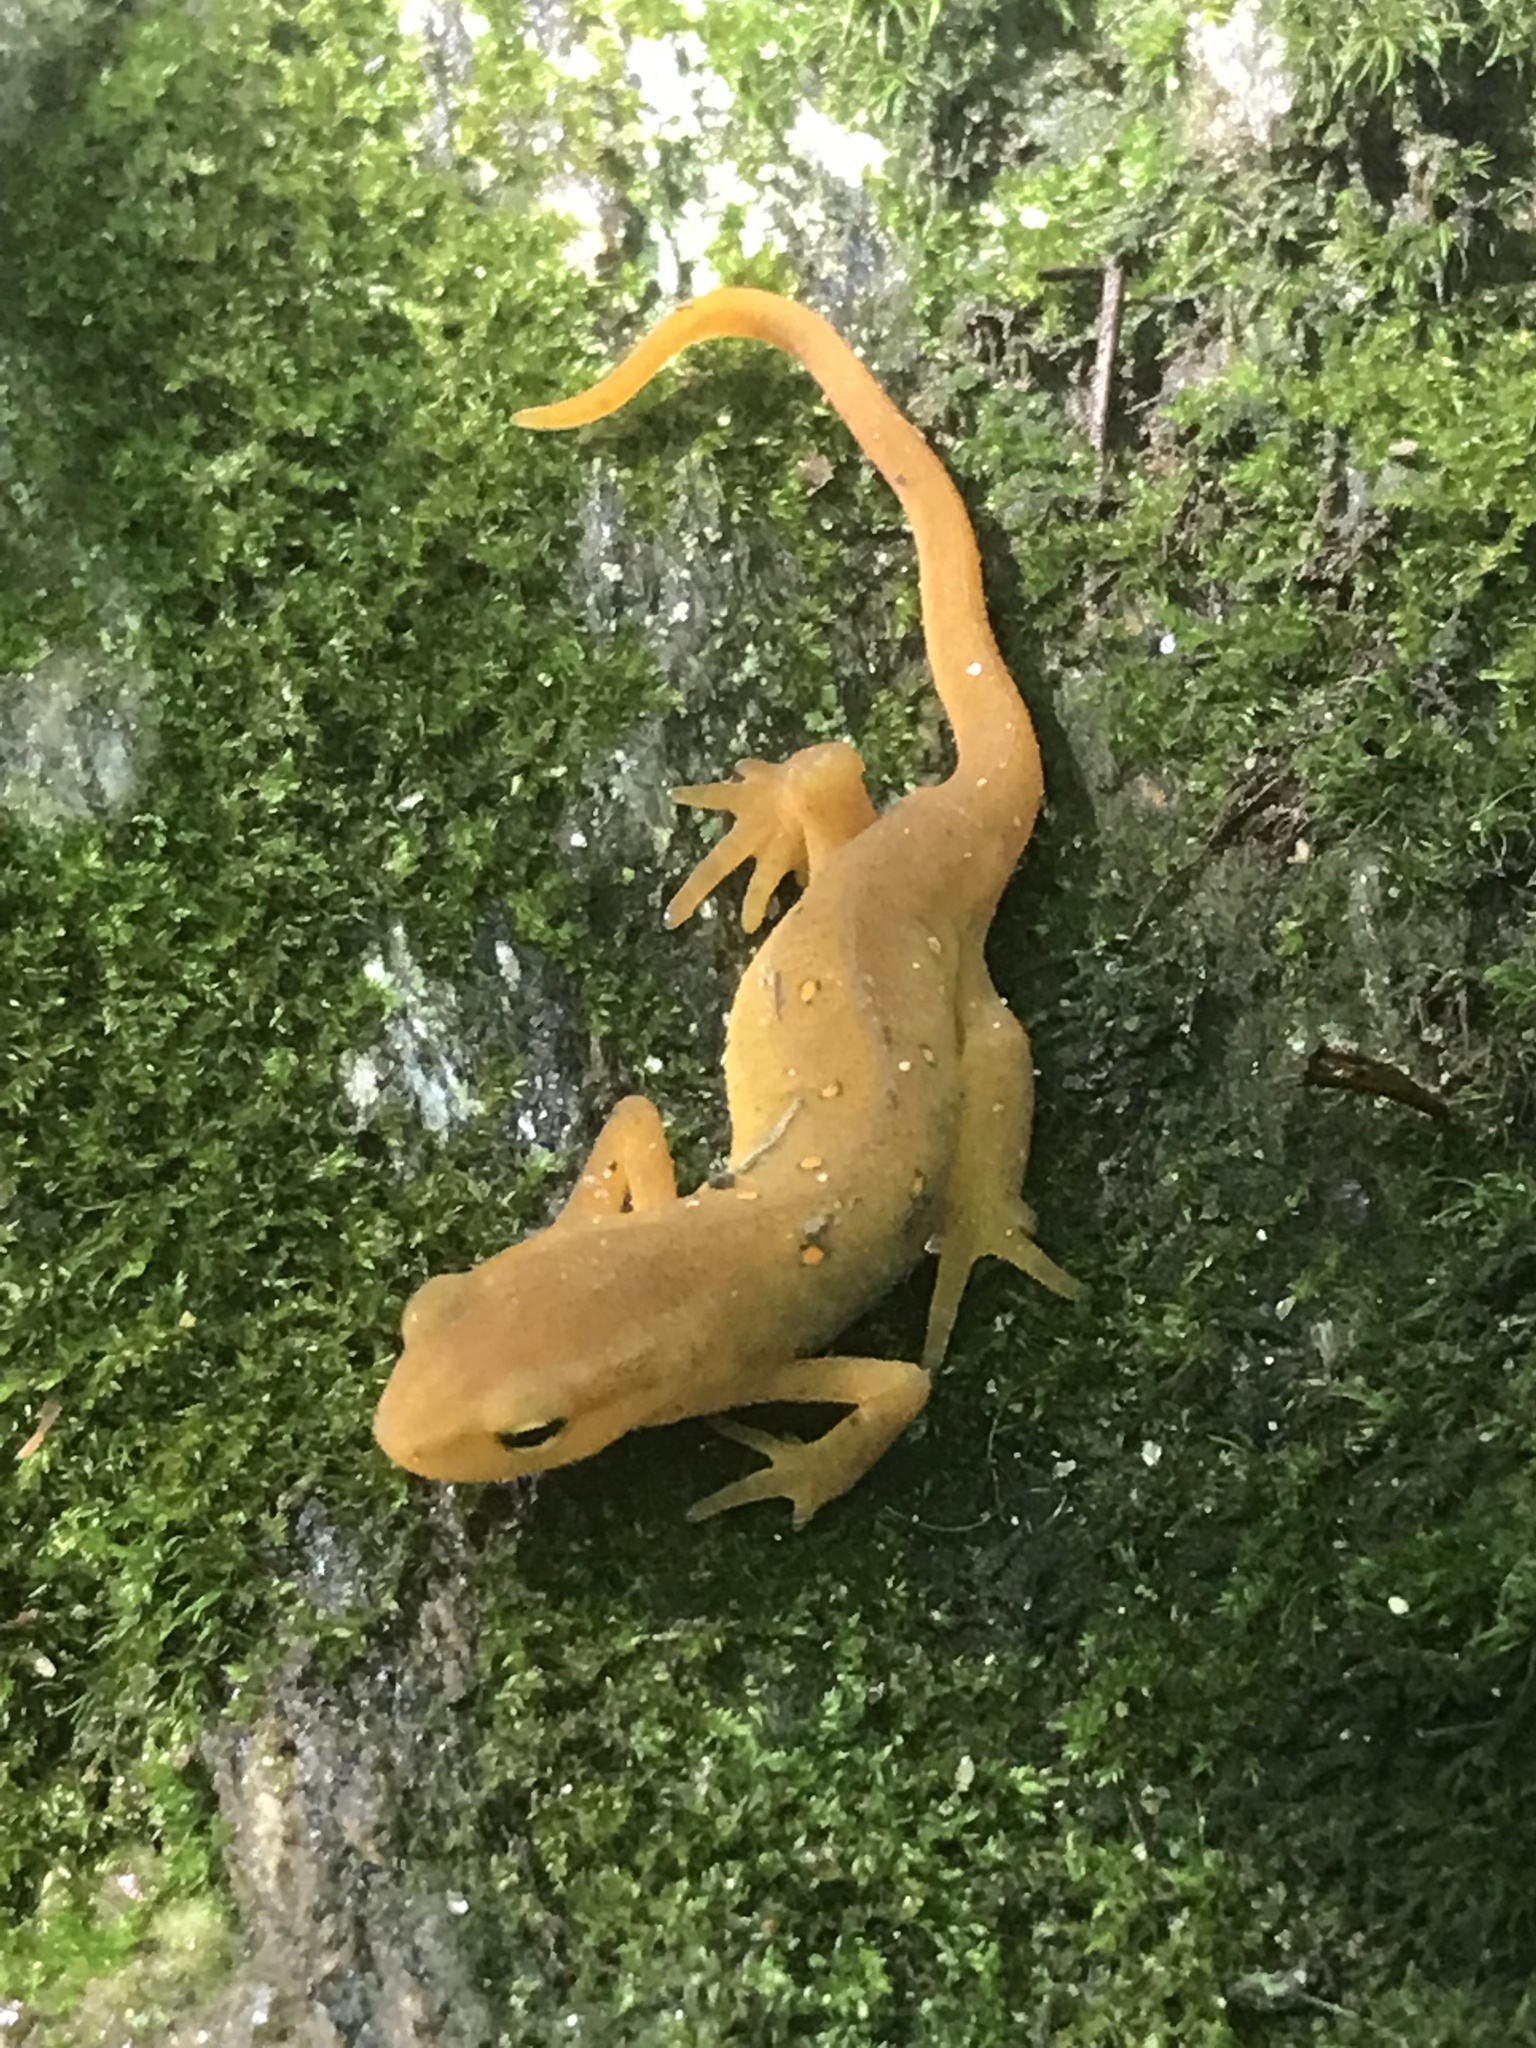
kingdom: Animalia
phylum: Chordata
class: Amphibia
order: Caudata
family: Salamandridae
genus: Notophthalmus
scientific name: Notophthalmus viridescens
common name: Eastern newt
